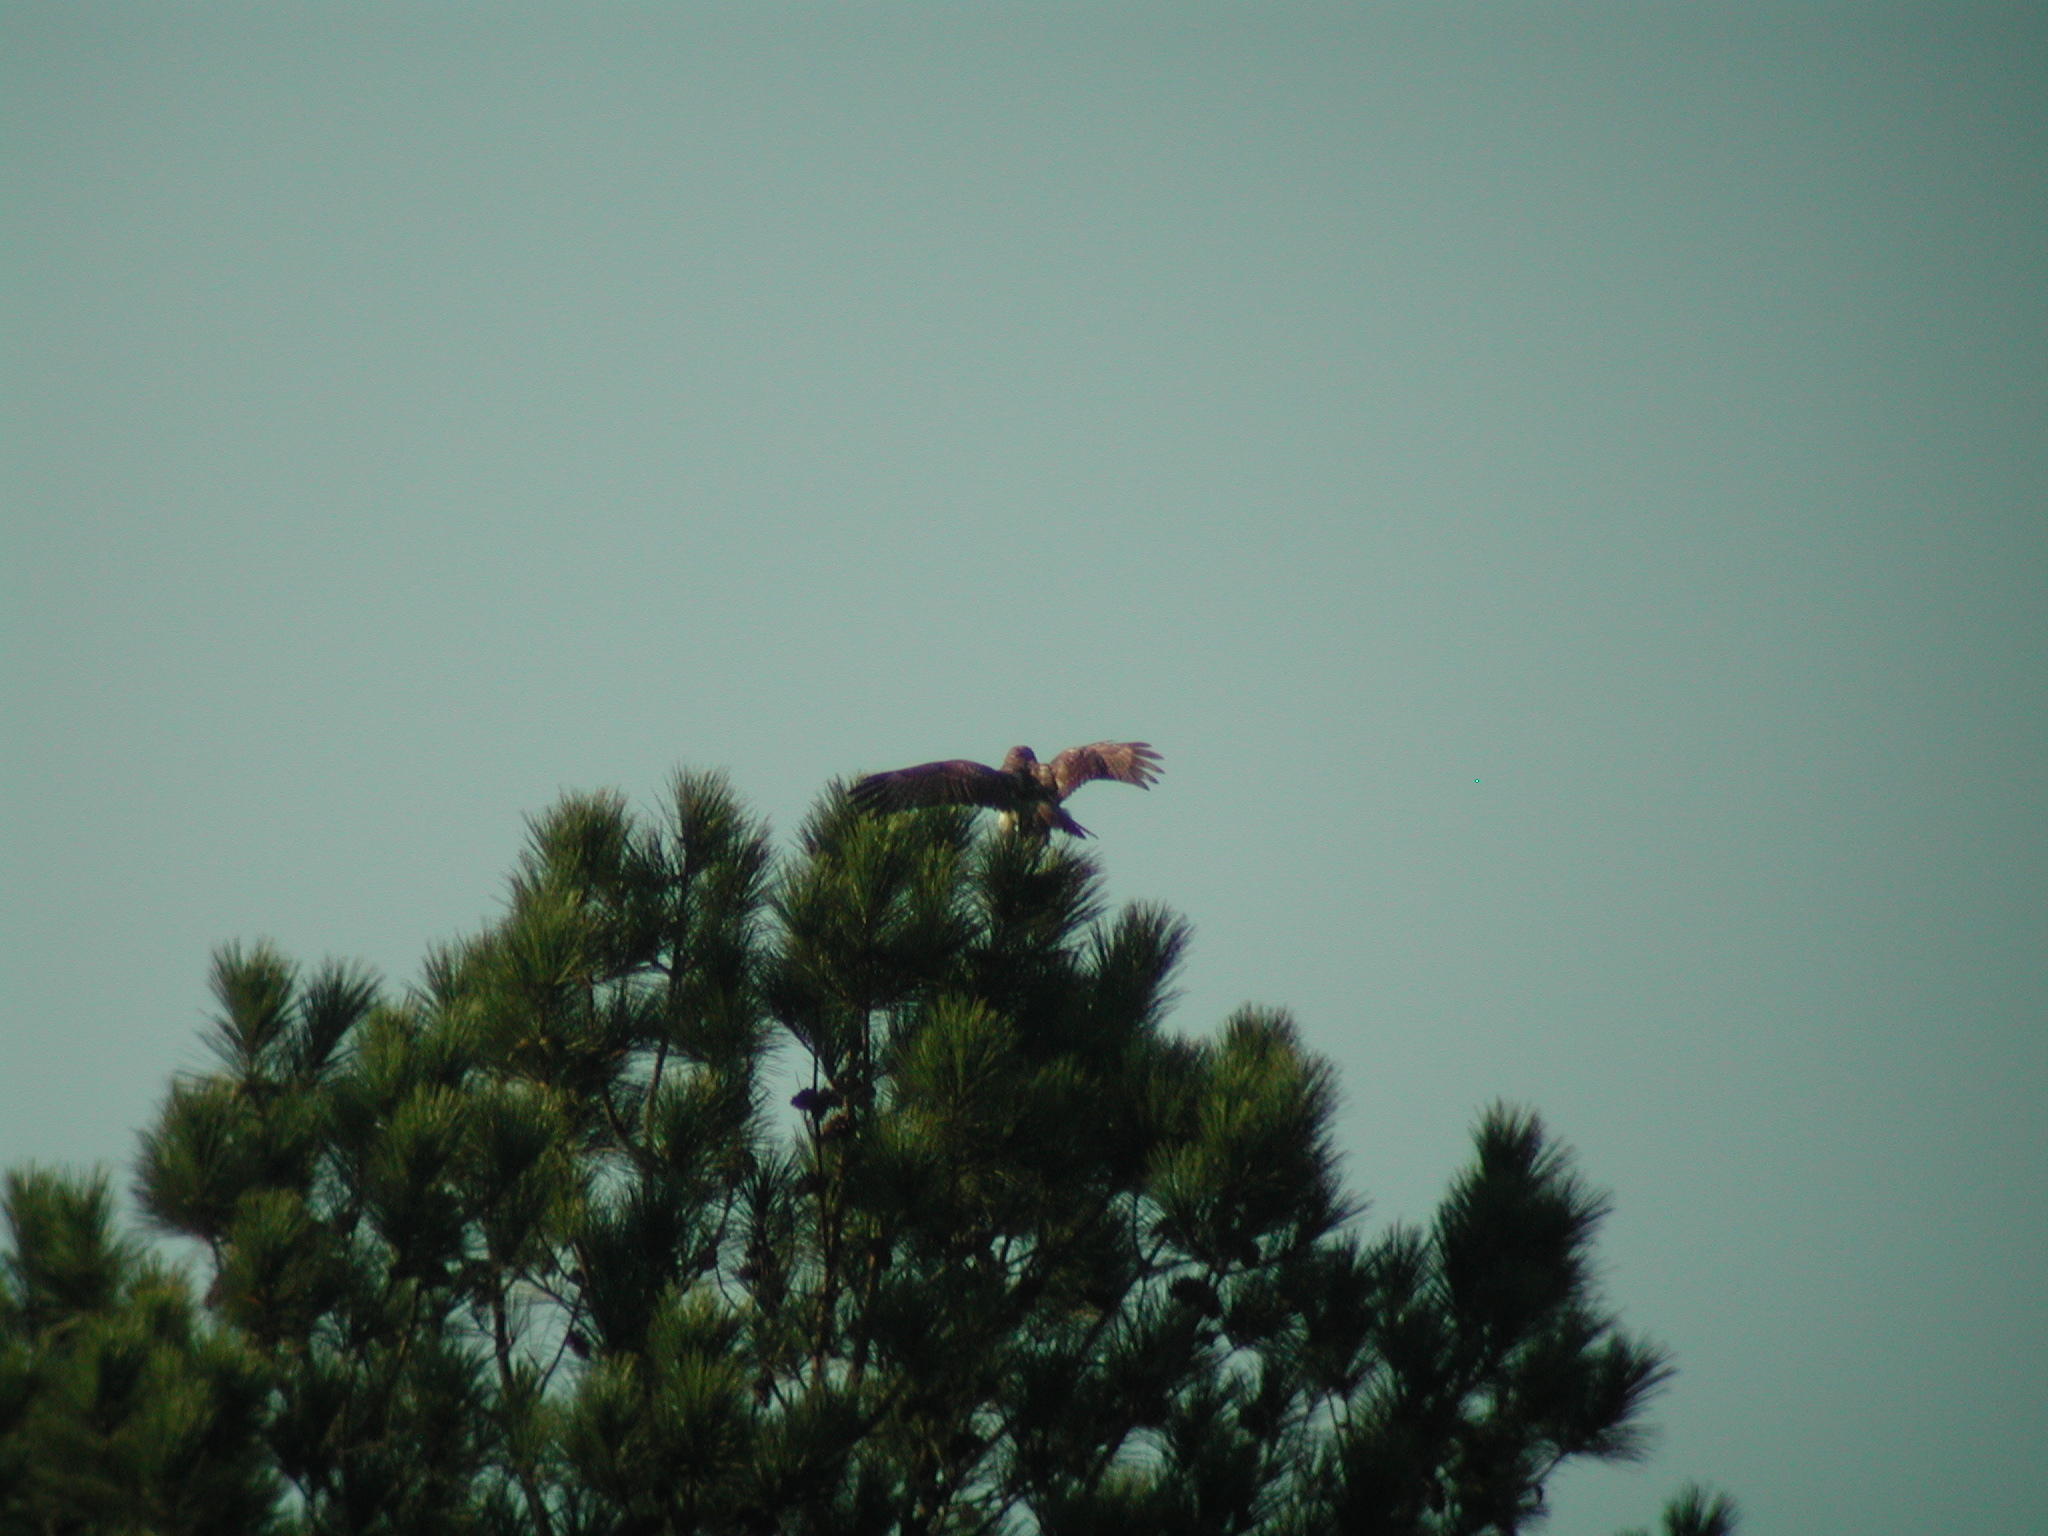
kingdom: Animalia
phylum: Chordata
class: Aves
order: Accipitriformes
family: Accipitridae
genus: Buteo
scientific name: Buteo jamaicensis
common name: Red-tailed hawk
